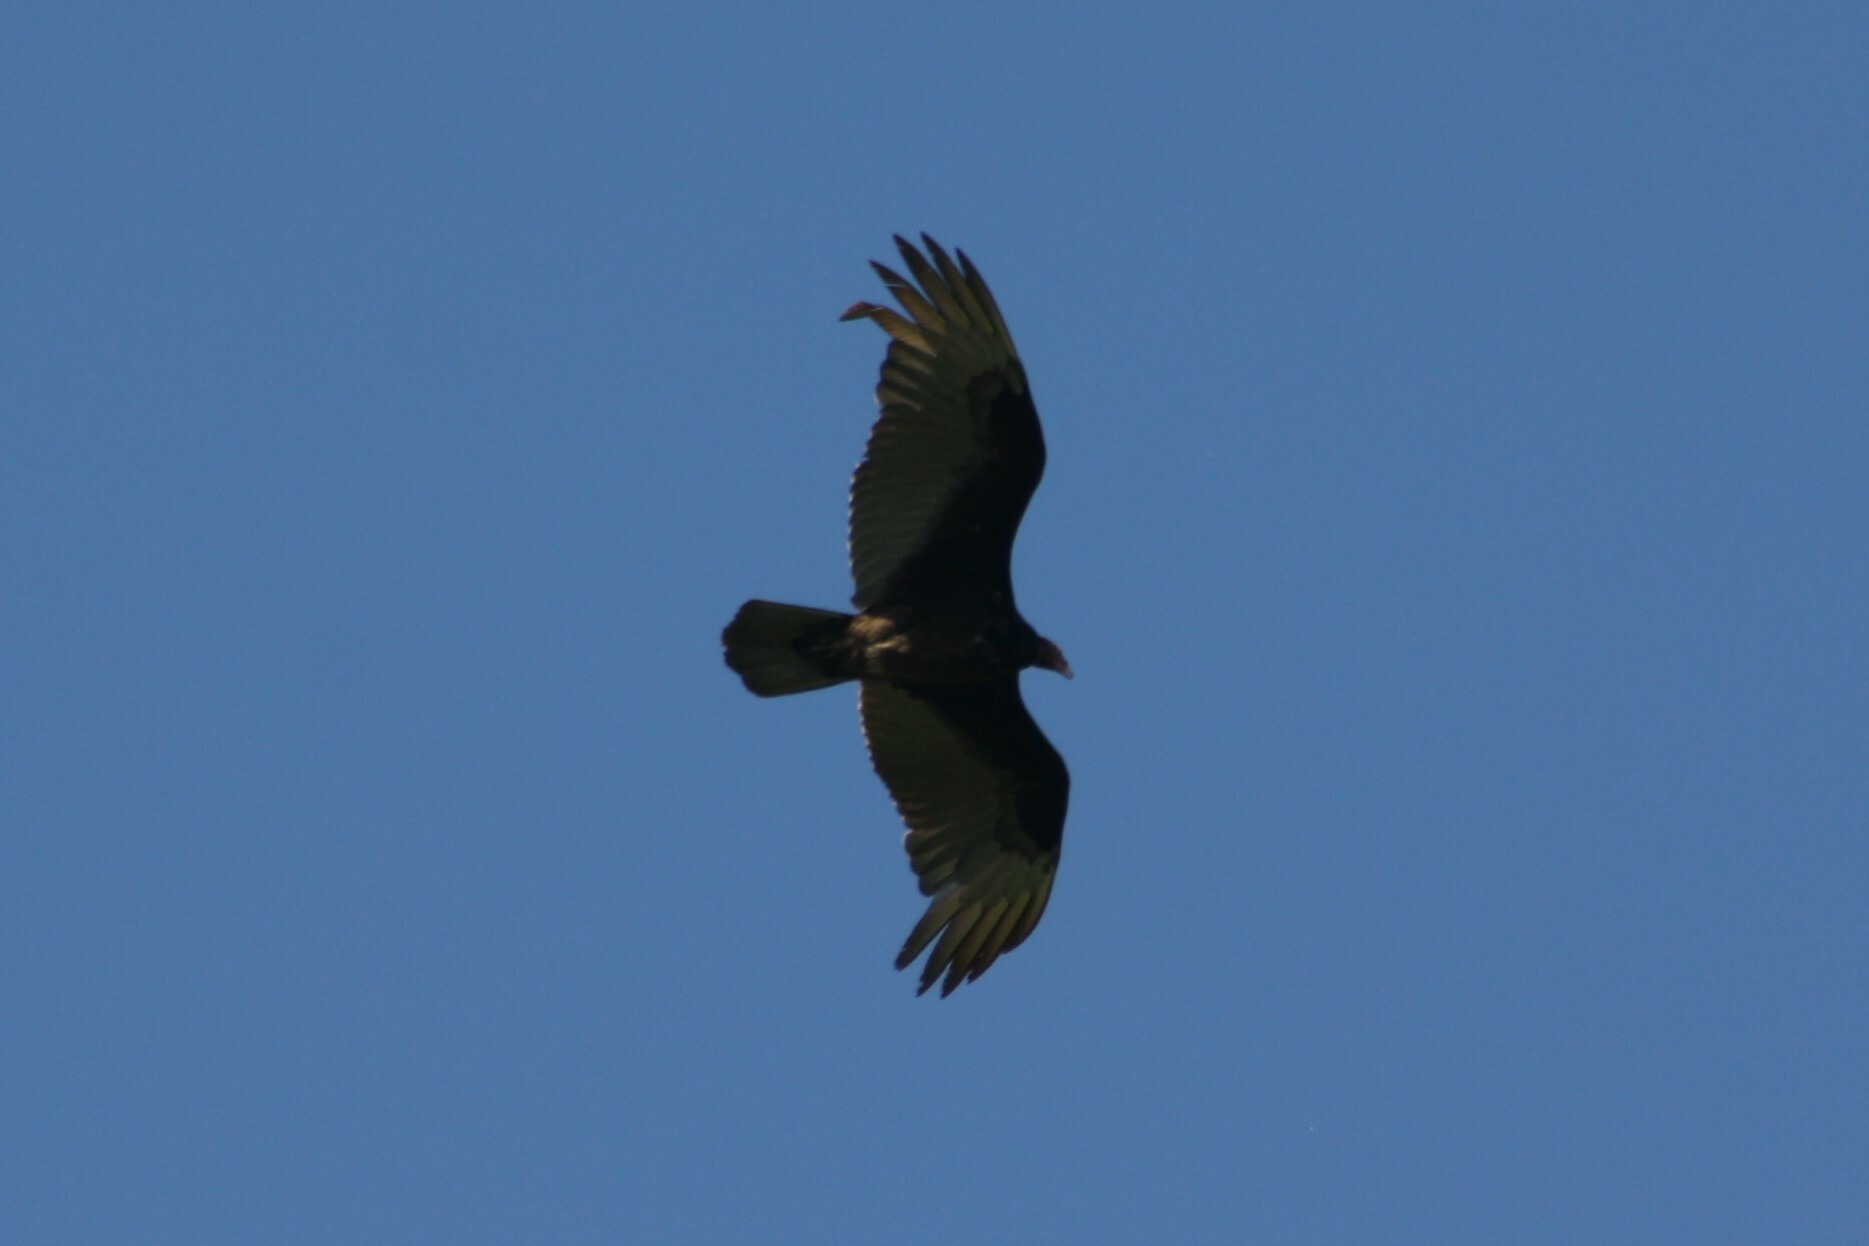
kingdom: Animalia
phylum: Chordata
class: Aves
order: Accipitriformes
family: Cathartidae
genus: Cathartes
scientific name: Cathartes aura
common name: Turkey vulture
